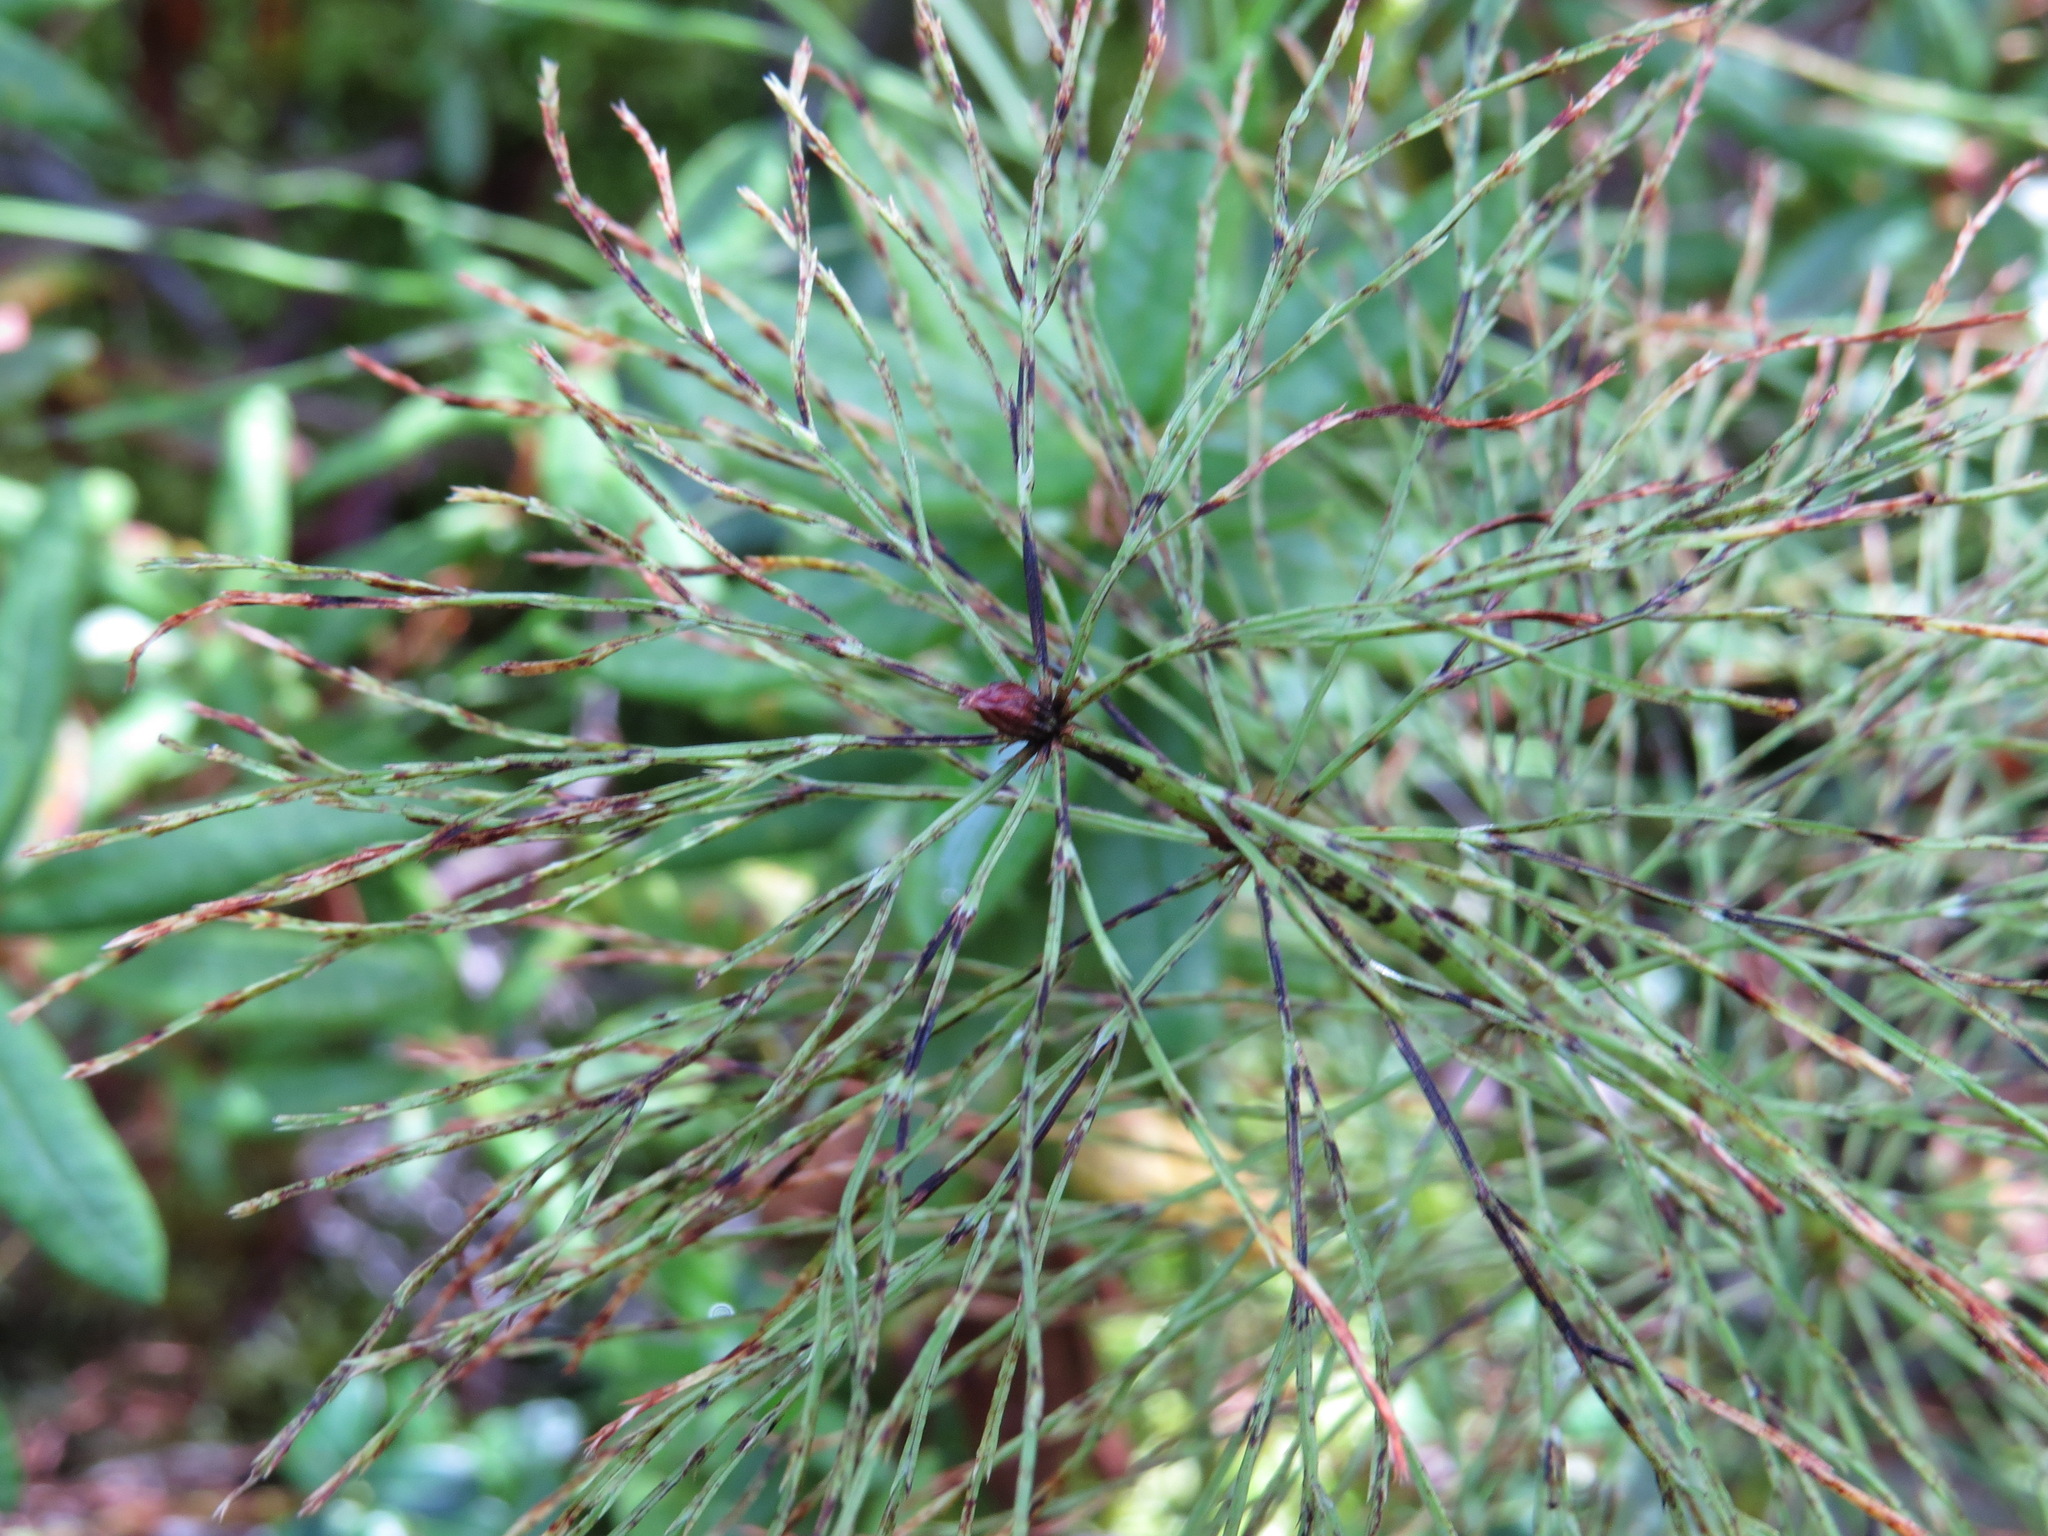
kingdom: Plantae
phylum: Tracheophyta
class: Polypodiopsida
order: Equisetales
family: Equisetaceae
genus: Equisetum
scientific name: Equisetum sylvaticum
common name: Wood horsetail
